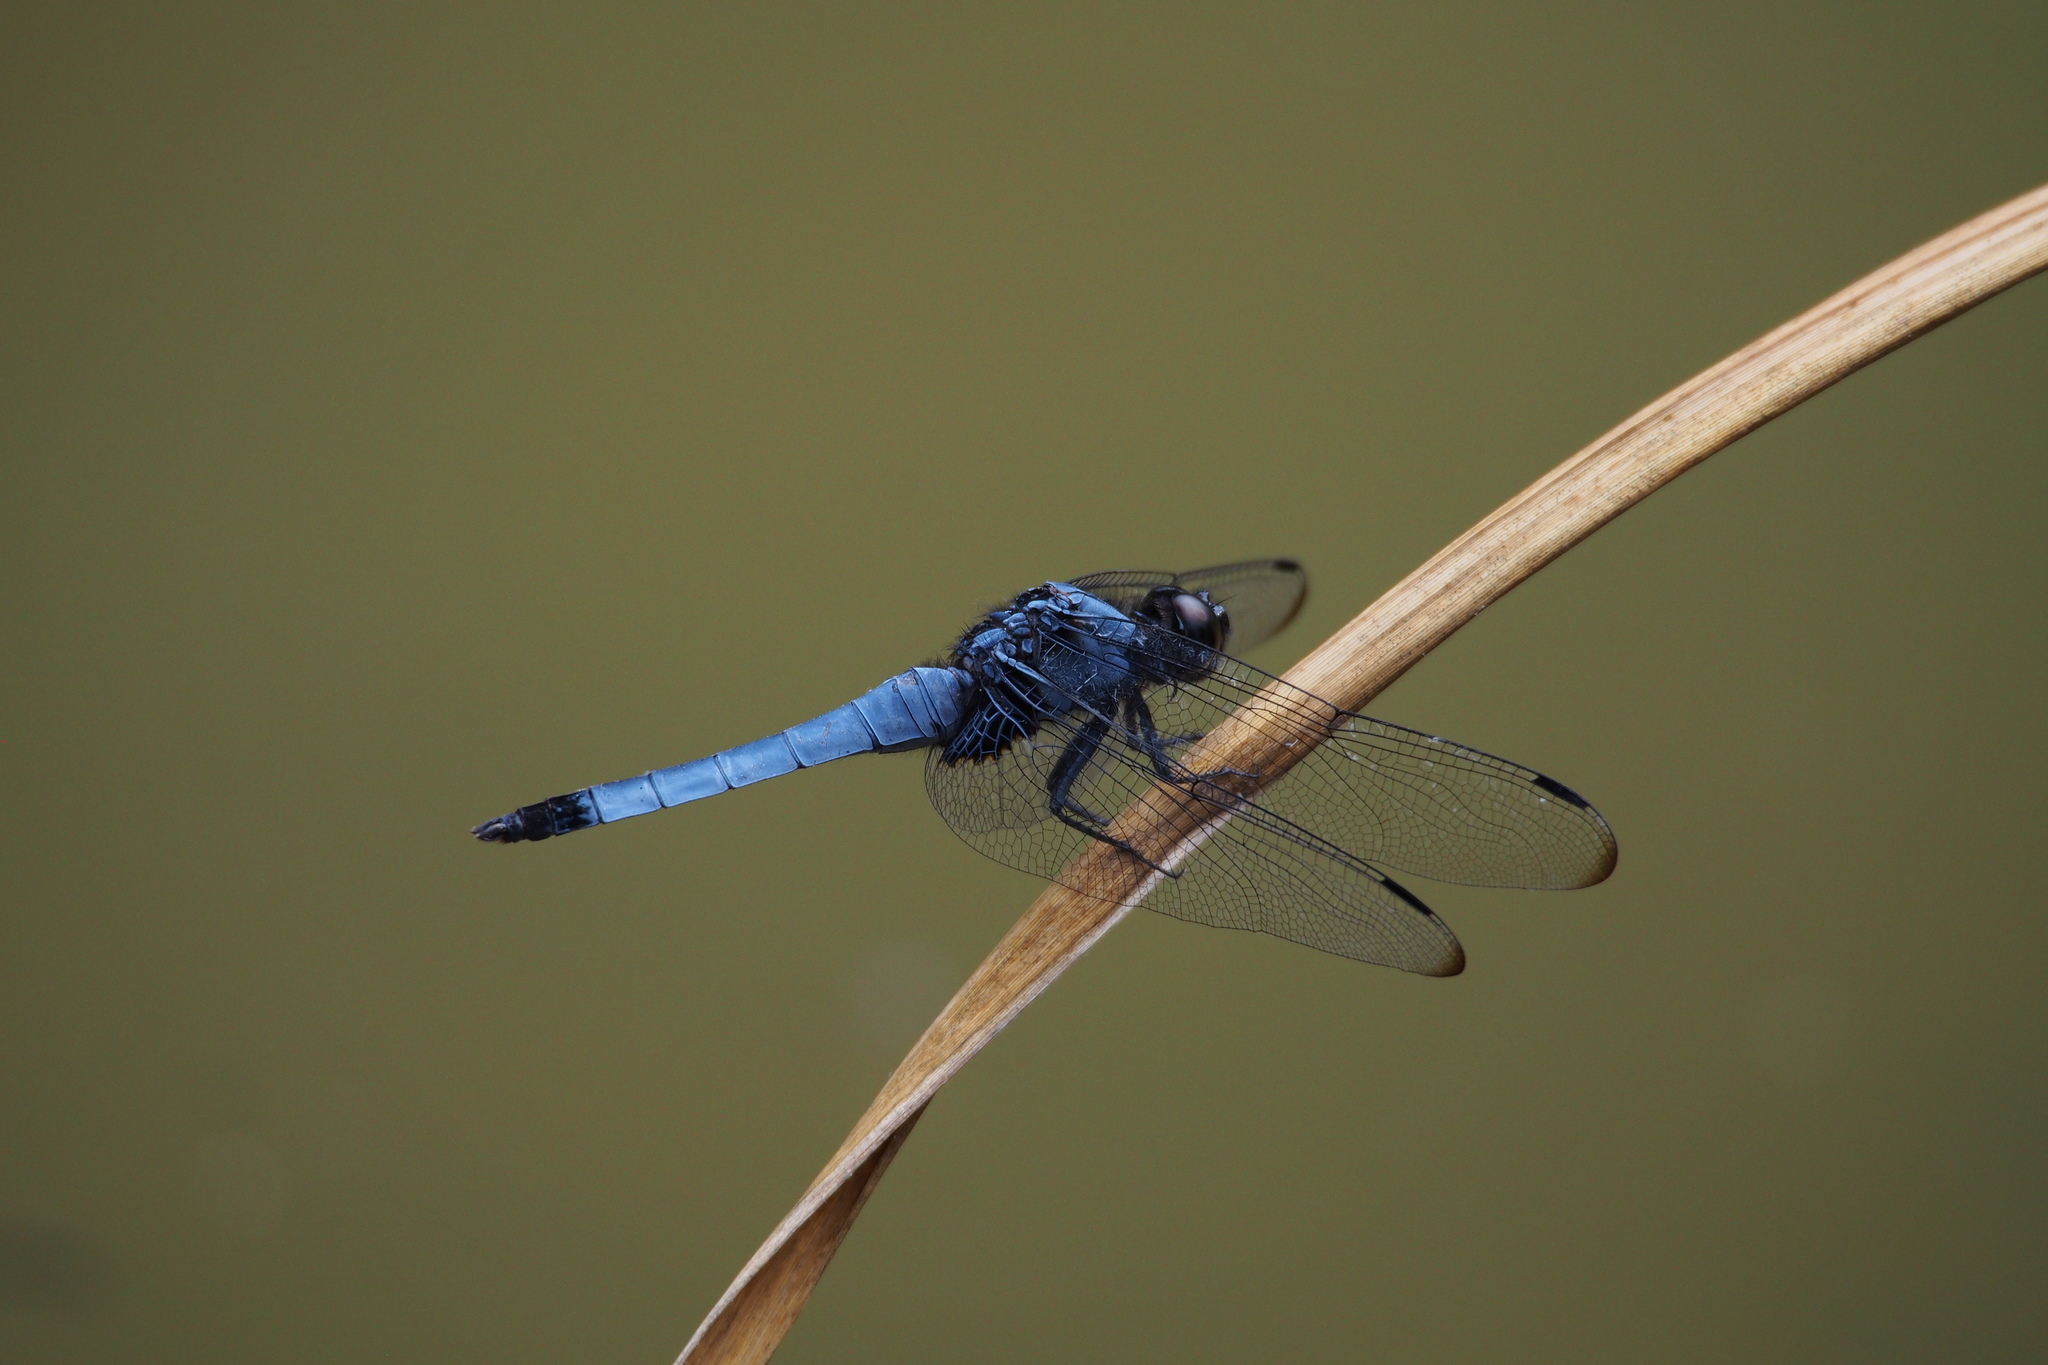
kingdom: Animalia
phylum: Arthropoda
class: Insecta
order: Odonata
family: Libellulidae
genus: Orthetrum
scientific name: Orthetrum melania
